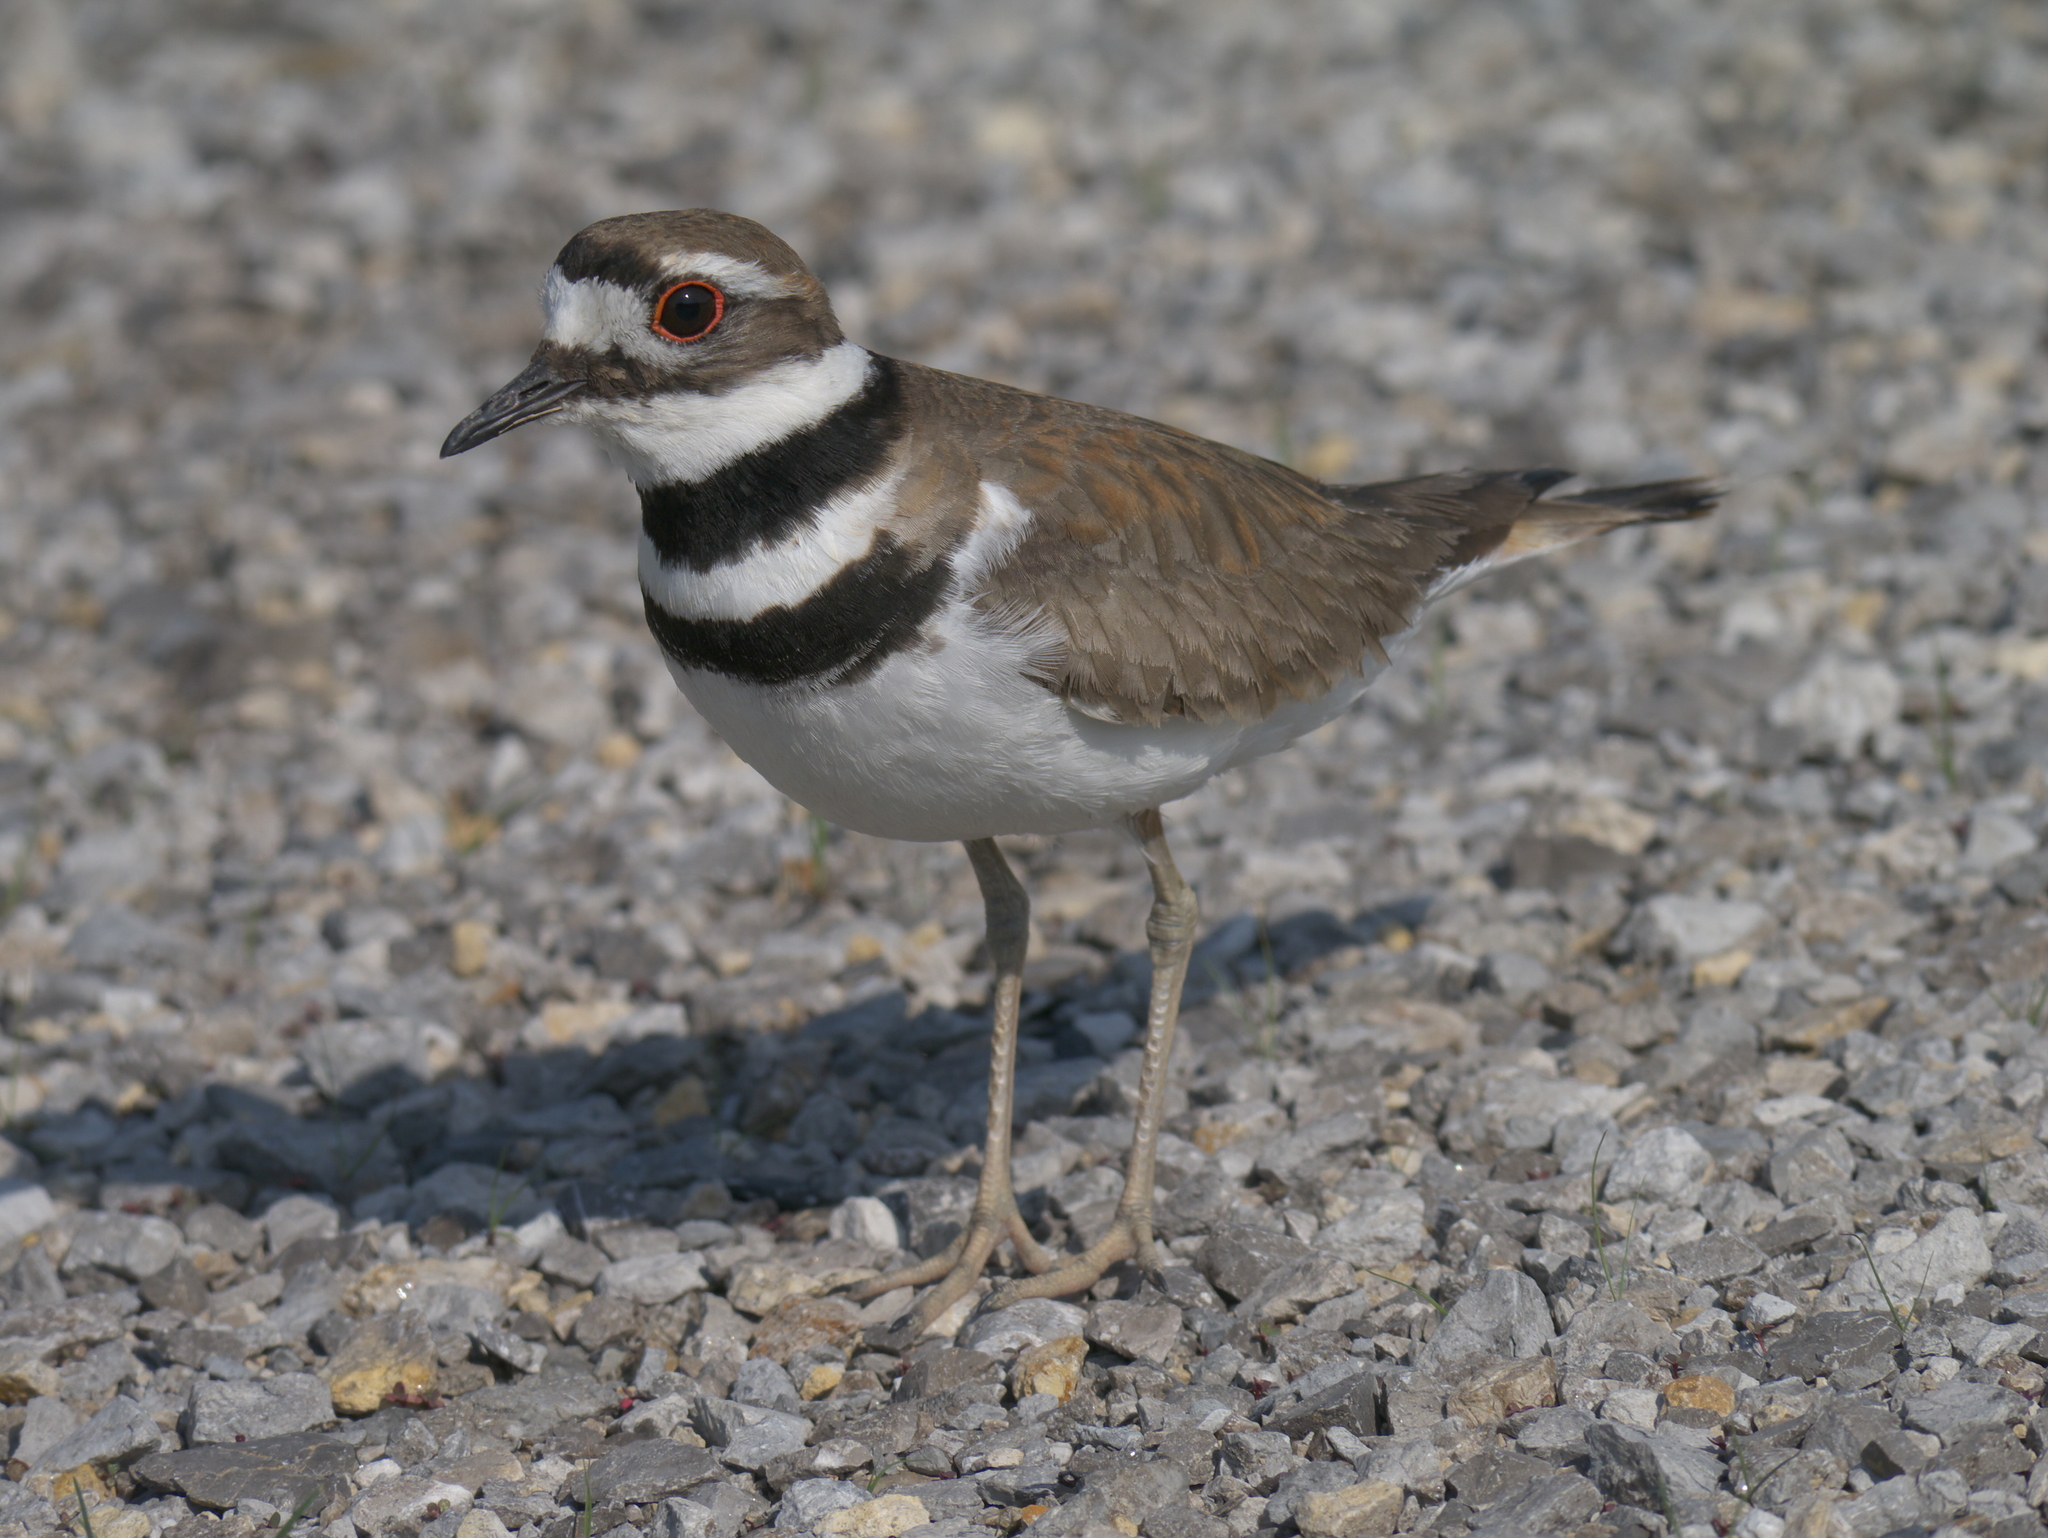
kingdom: Animalia
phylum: Chordata
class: Aves
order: Charadriiformes
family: Charadriidae
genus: Charadrius
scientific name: Charadrius vociferus
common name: Killdeer
